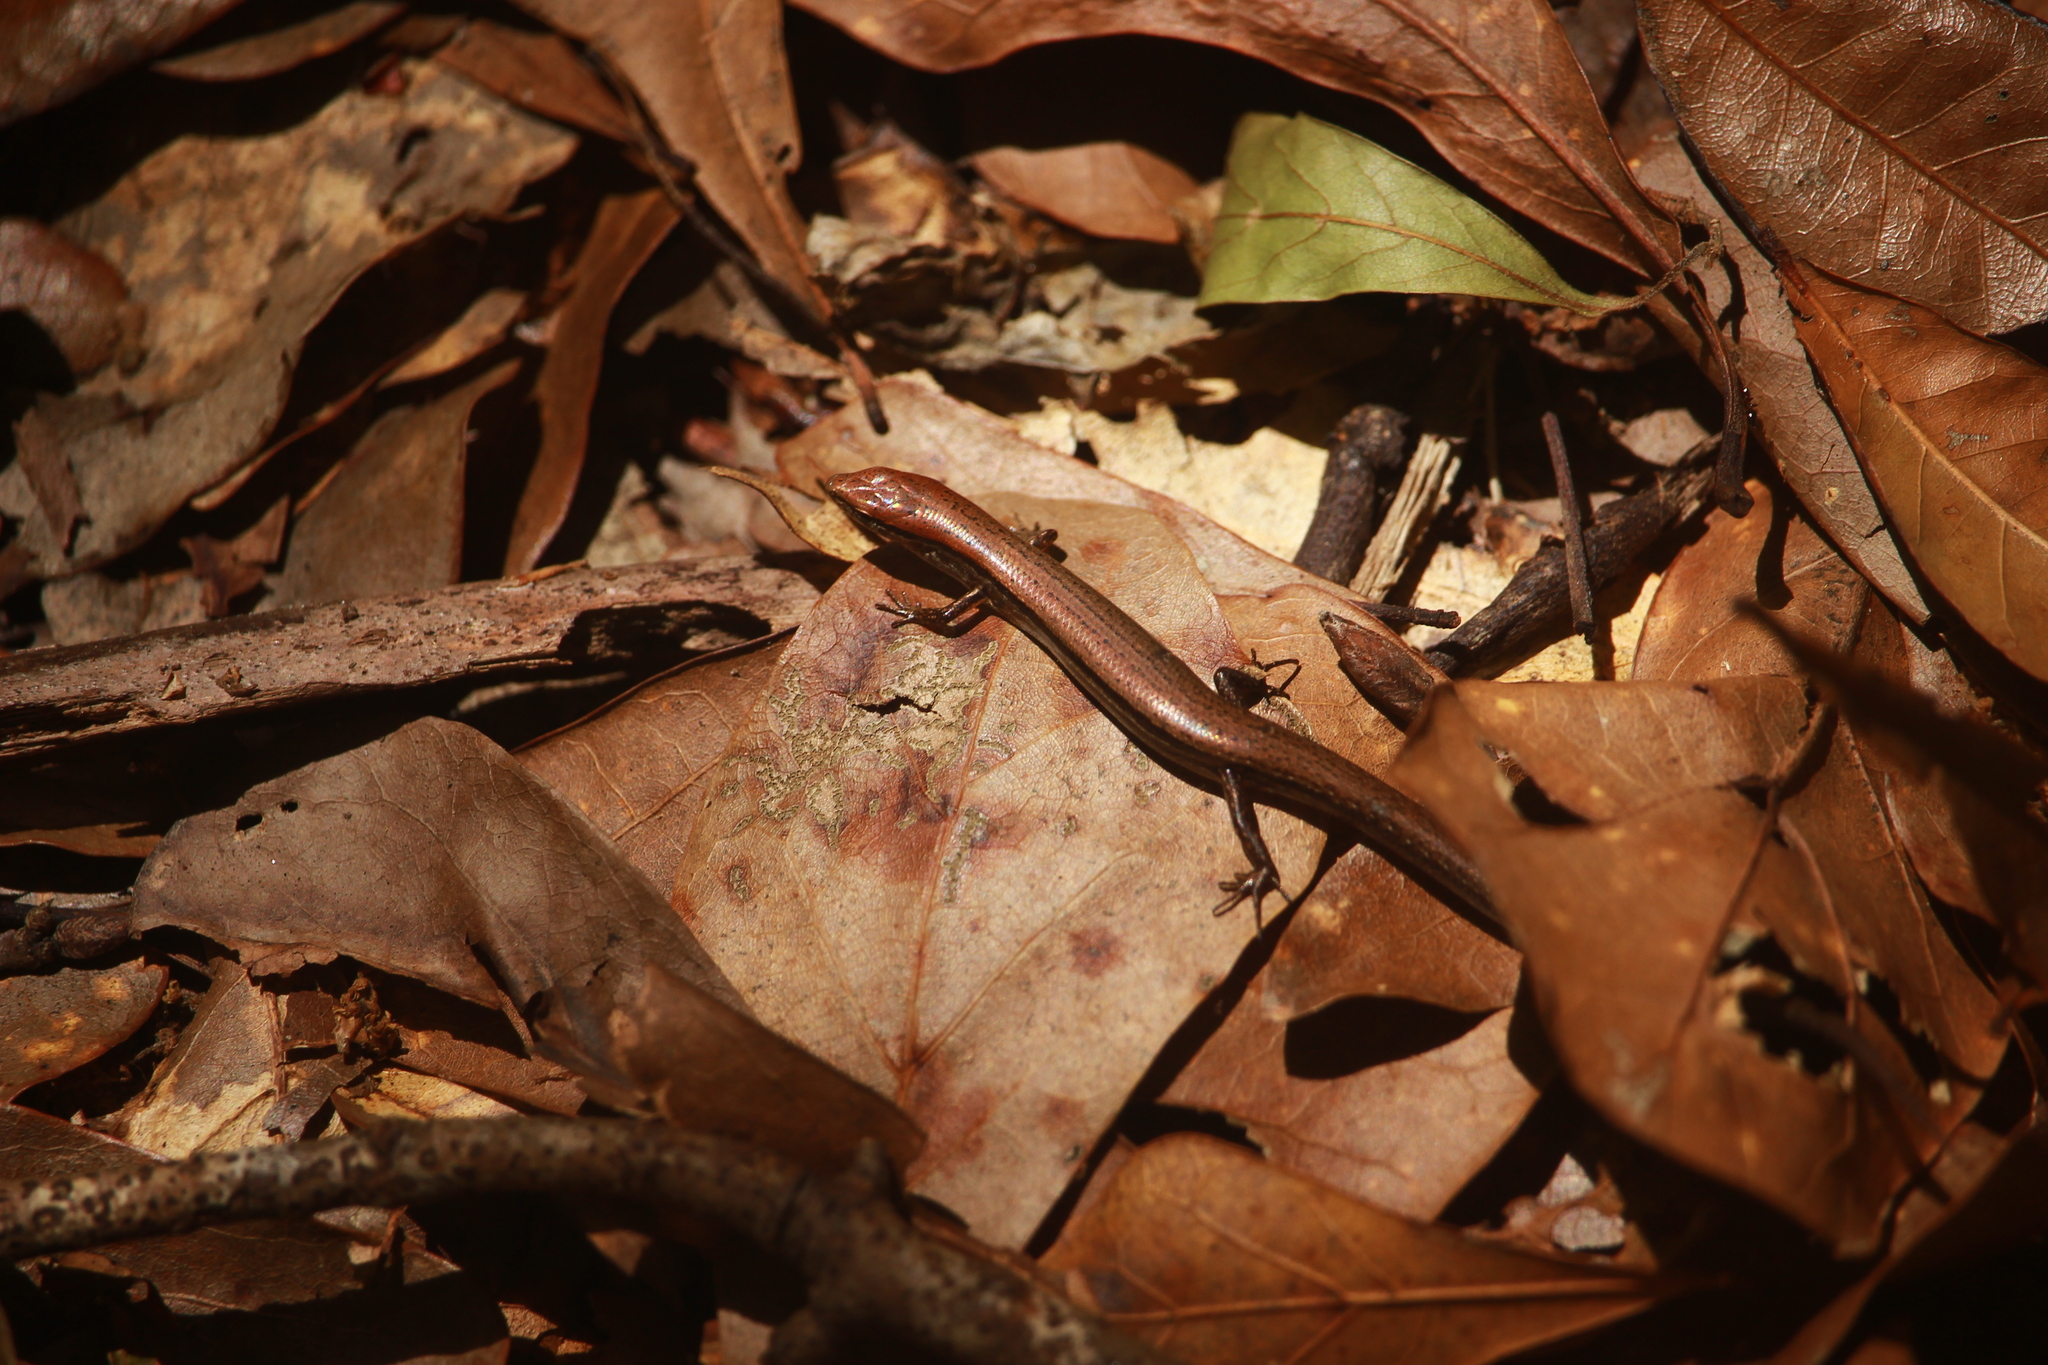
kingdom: Animalia
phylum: Chordata
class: Squamata
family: Scincidae
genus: Scincella
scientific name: Scincella lateralis
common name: Ground skink
